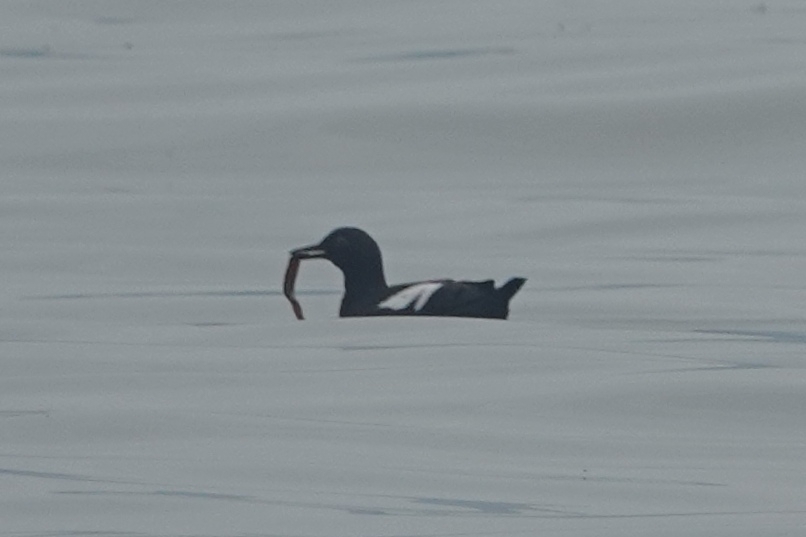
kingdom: Animalia
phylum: Chordata
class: Aves
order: Charadriiformes
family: Alcidae
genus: Cepphus
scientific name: Cepphus columba
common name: Pigeon guillemot
